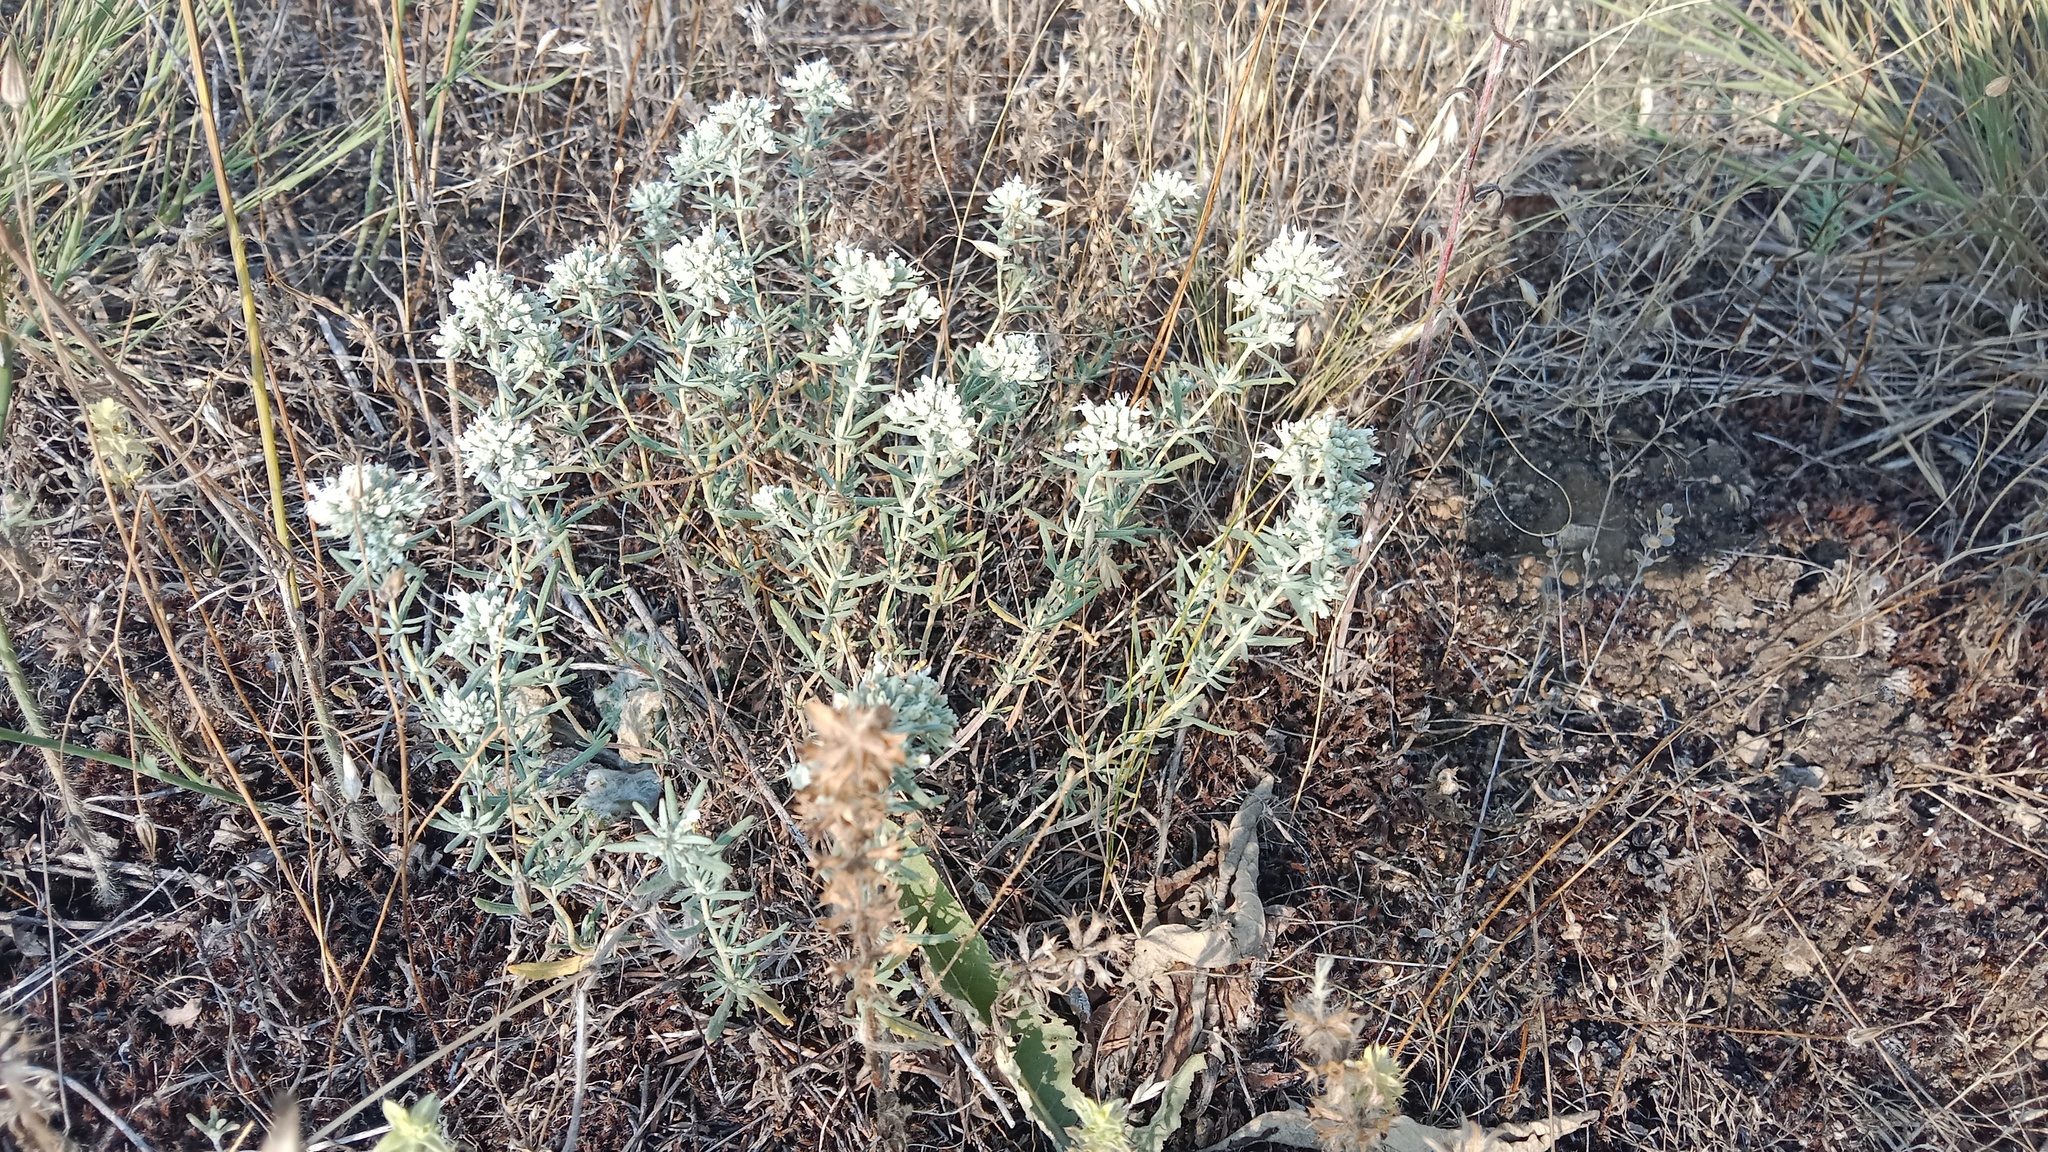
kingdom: Plantae
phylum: Tracheophyta
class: Magnoliopsida
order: Lamiales
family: Lamiaceae
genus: Teucrium
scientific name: Teucrium polium
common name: Poley
